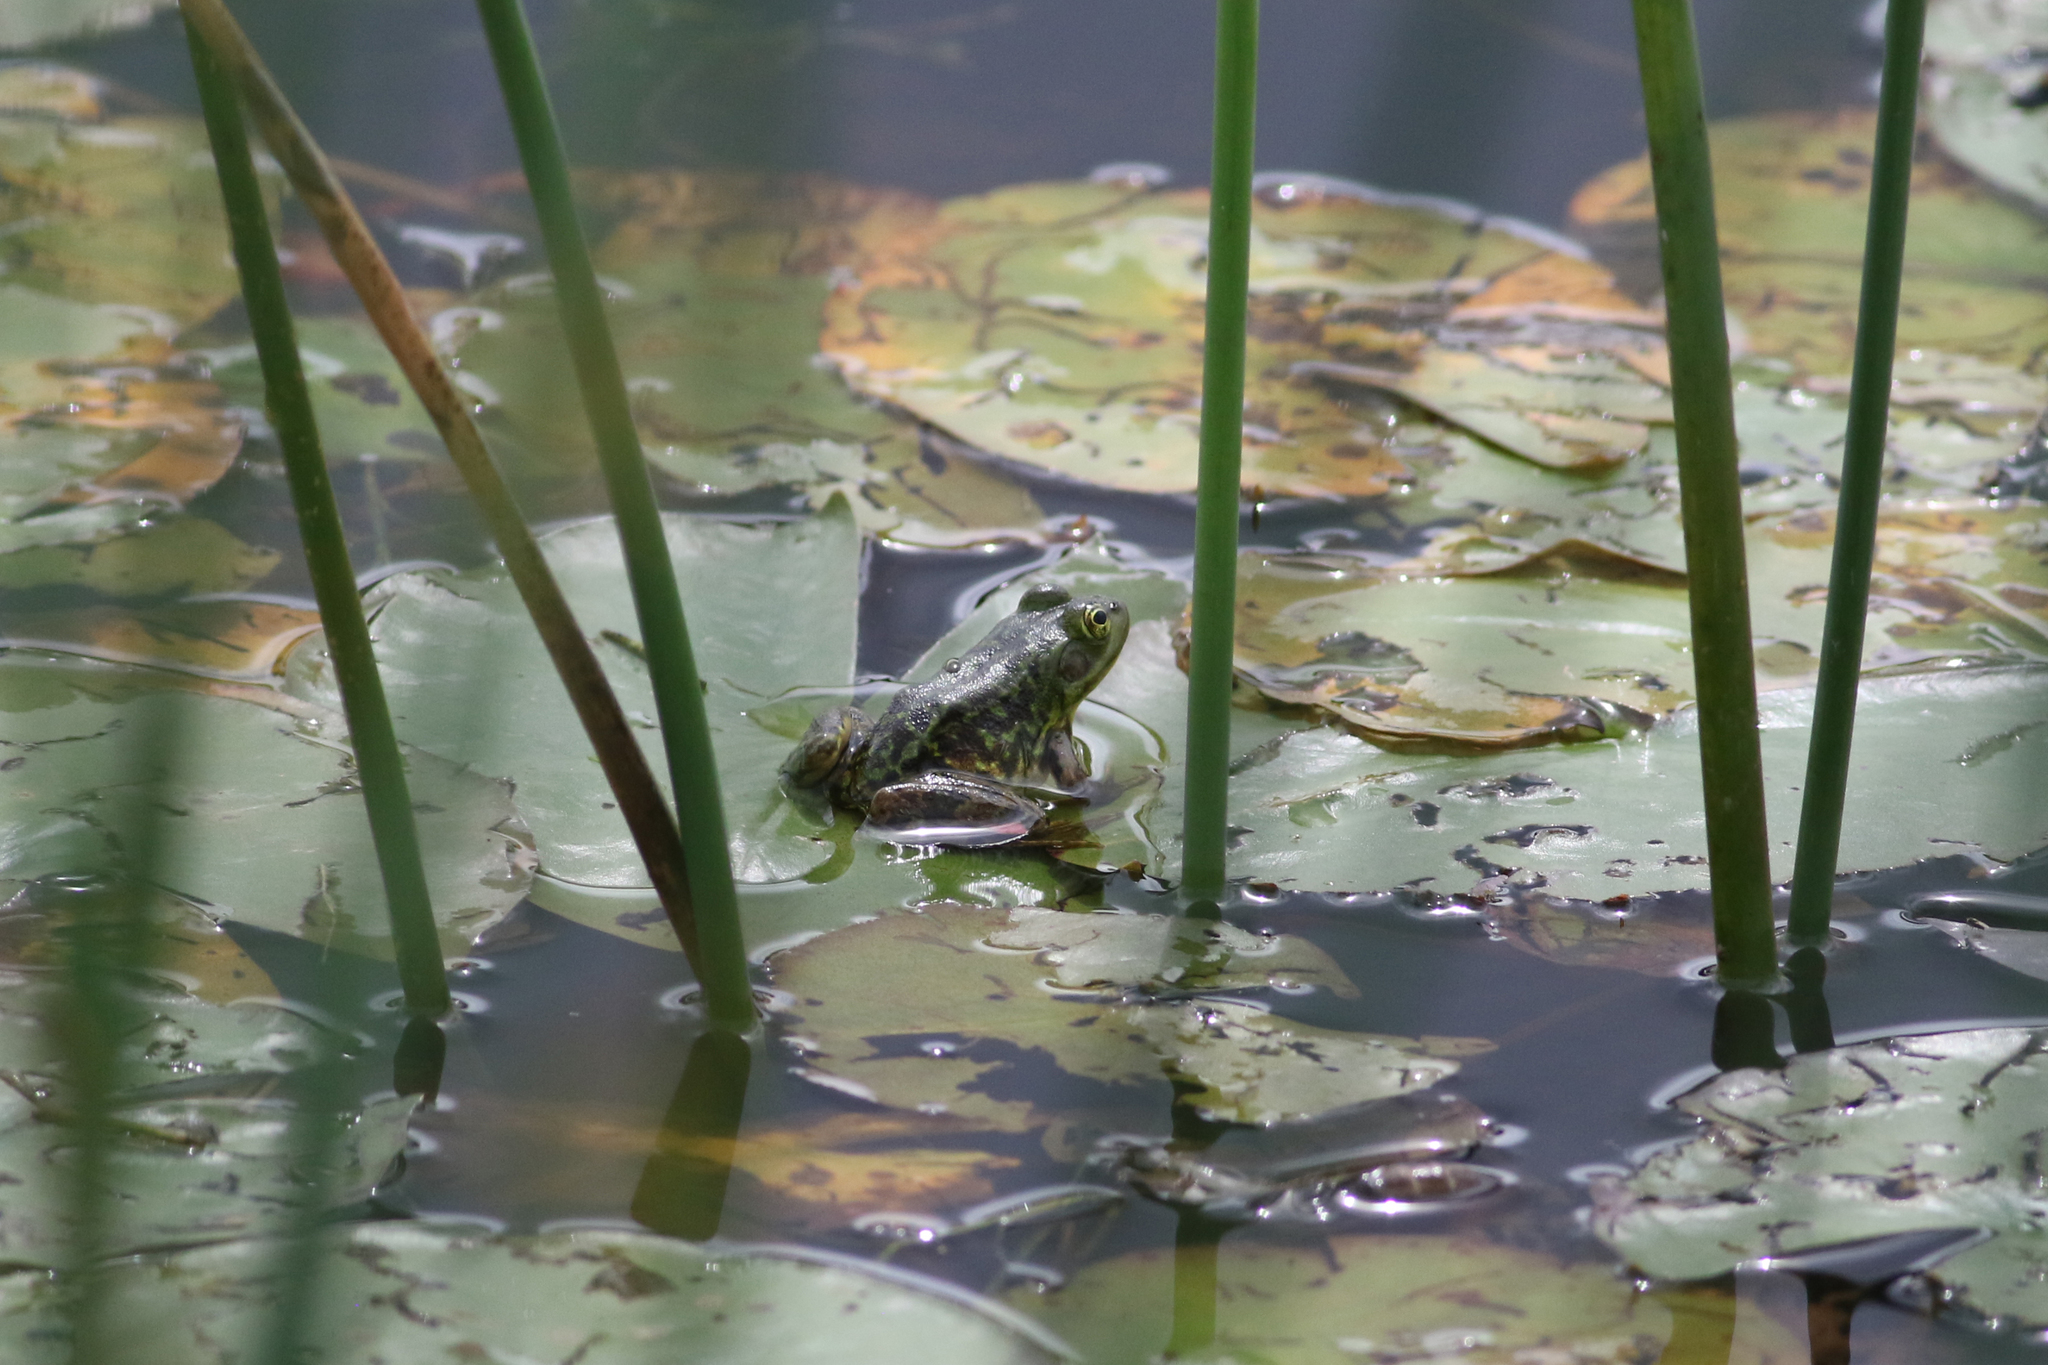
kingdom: Animalia
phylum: Chordata
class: Amphibia
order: Anura
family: Ranidae
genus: Lithobates
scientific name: Lithobates septentrionalis
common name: Mink frog
